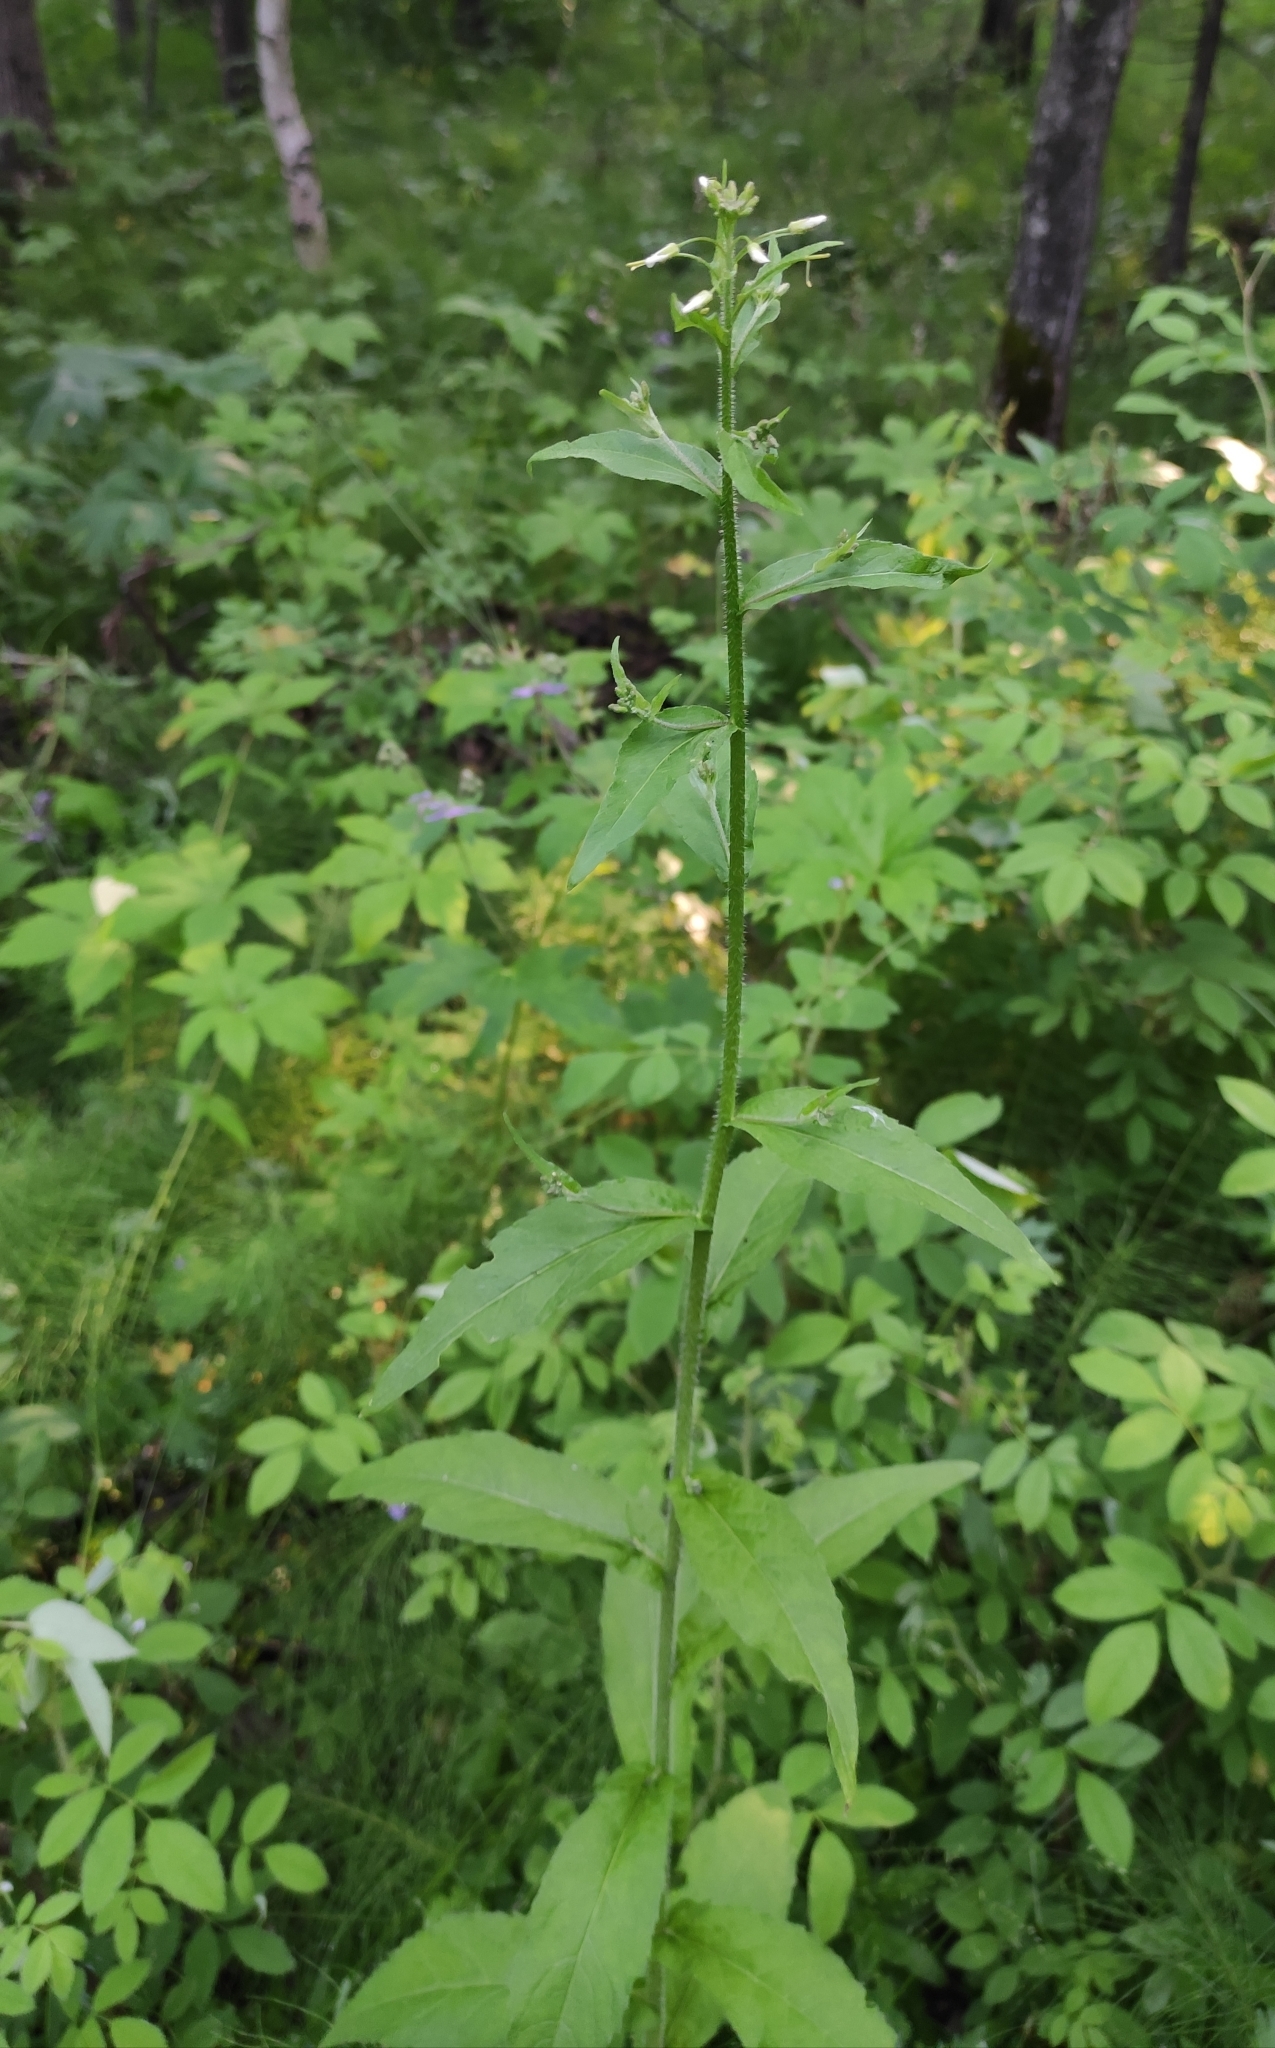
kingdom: Plantae
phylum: Tracheophyta
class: Magnoliopsida
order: Brassicales
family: Brassicaceae
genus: Catolobus
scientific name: Catolobus pendulus
